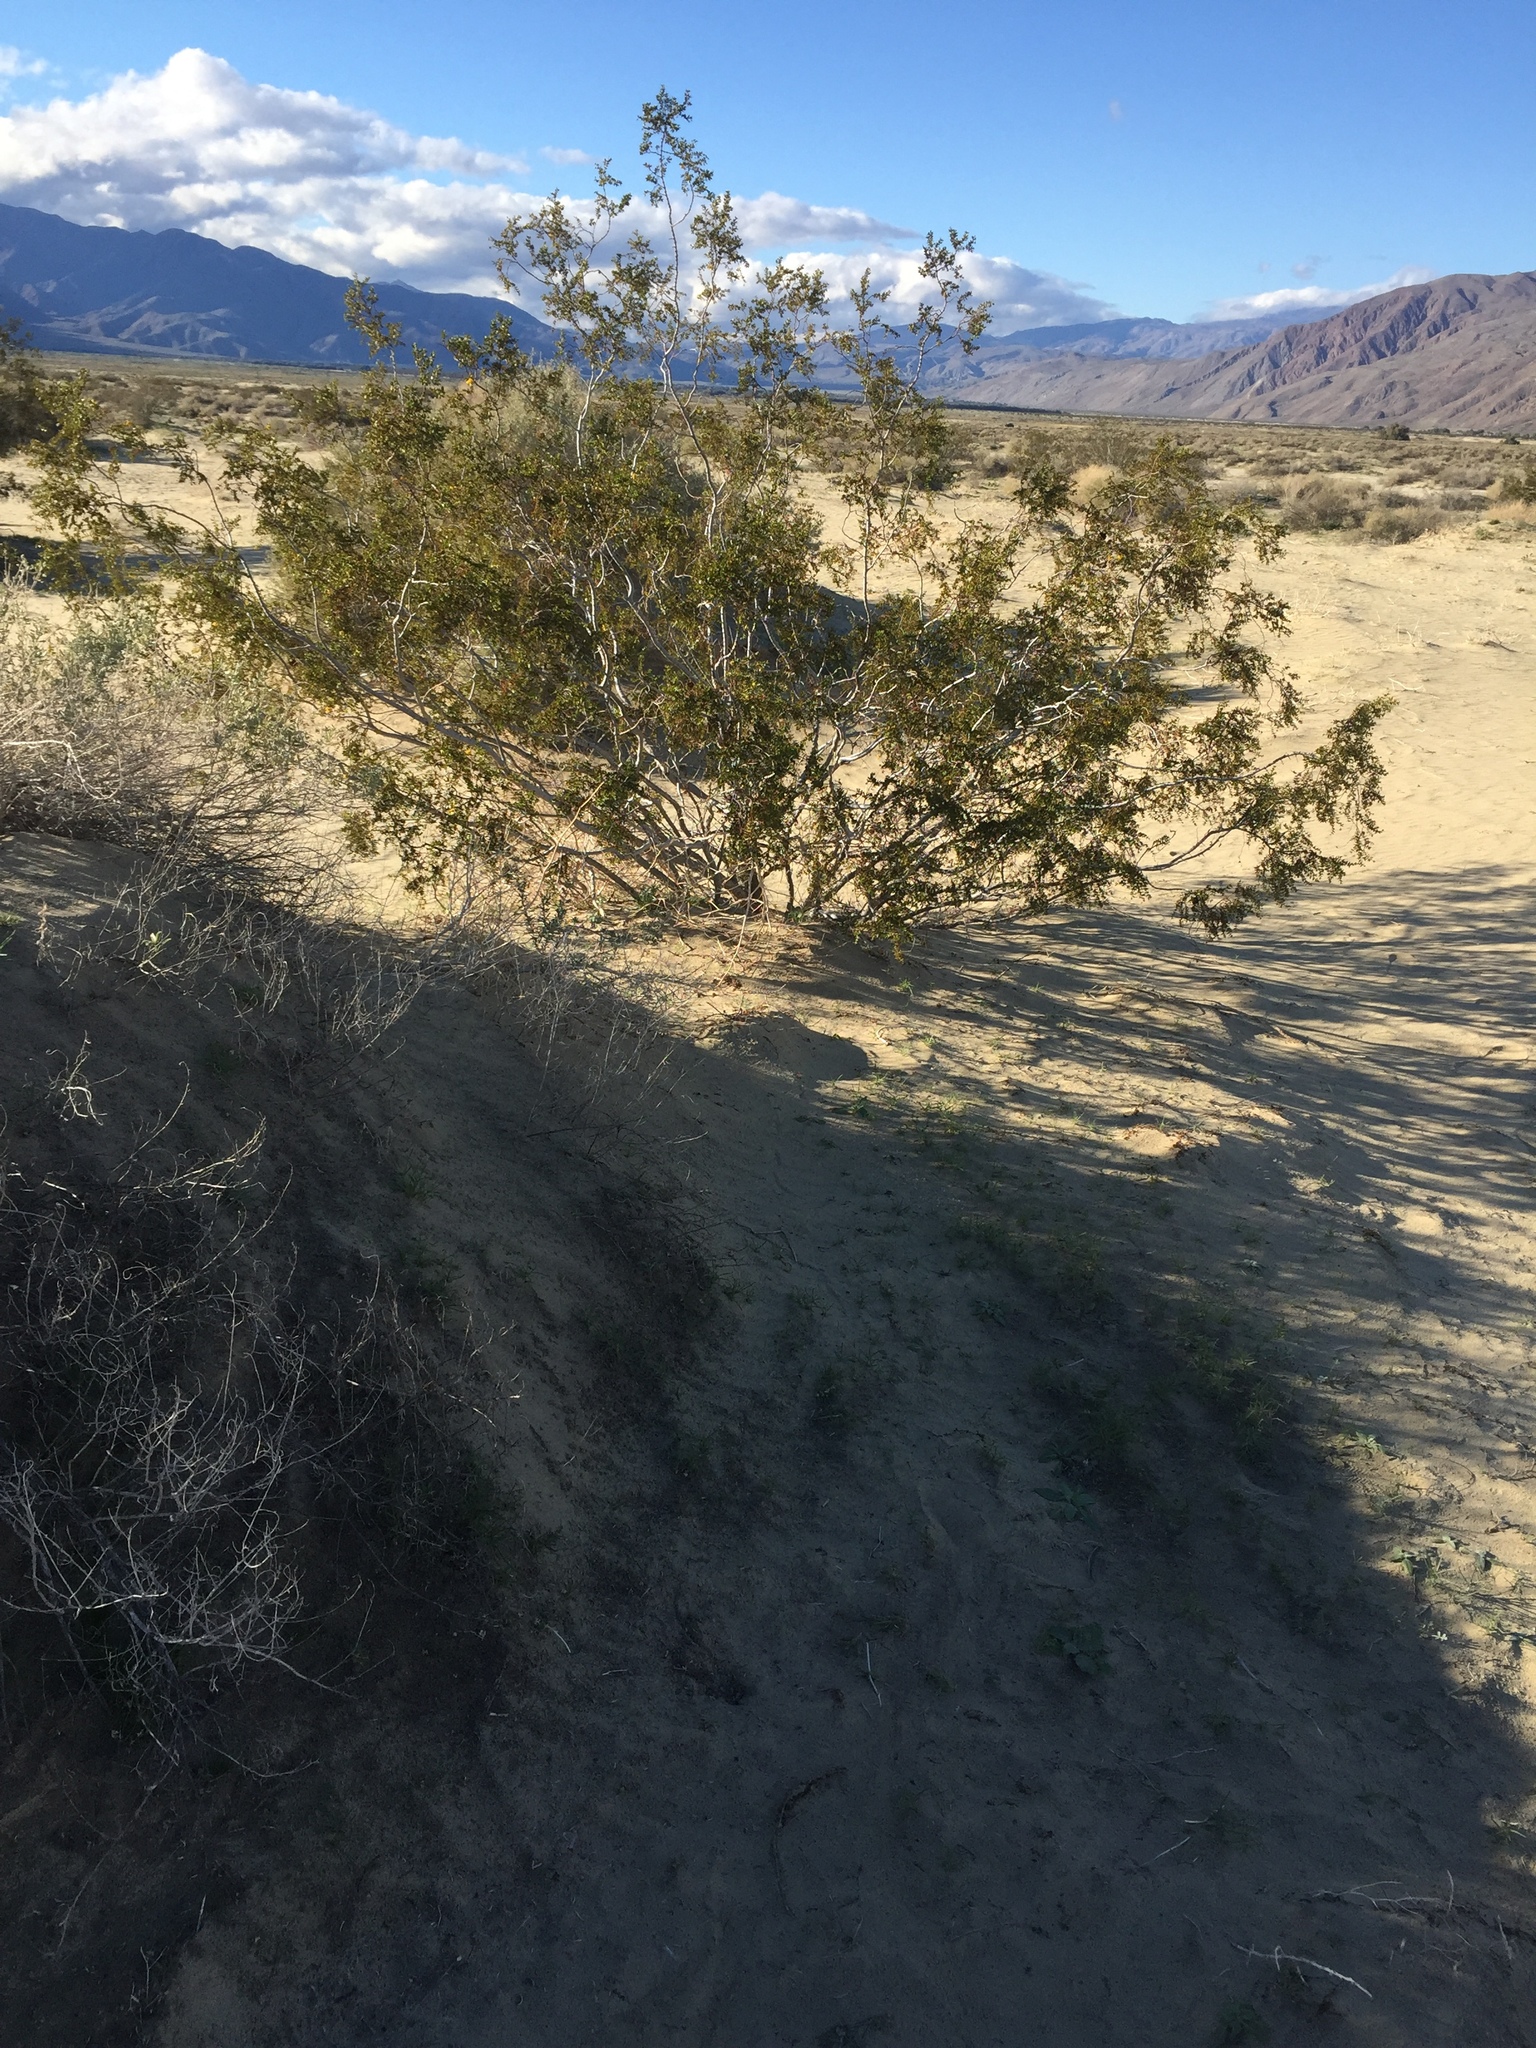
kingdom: Plantae
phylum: Tracheophyta
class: Magnoliopsida
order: Zygophyllales
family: Zygophyllaceae
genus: Larrea
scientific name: Larrea tridentata
